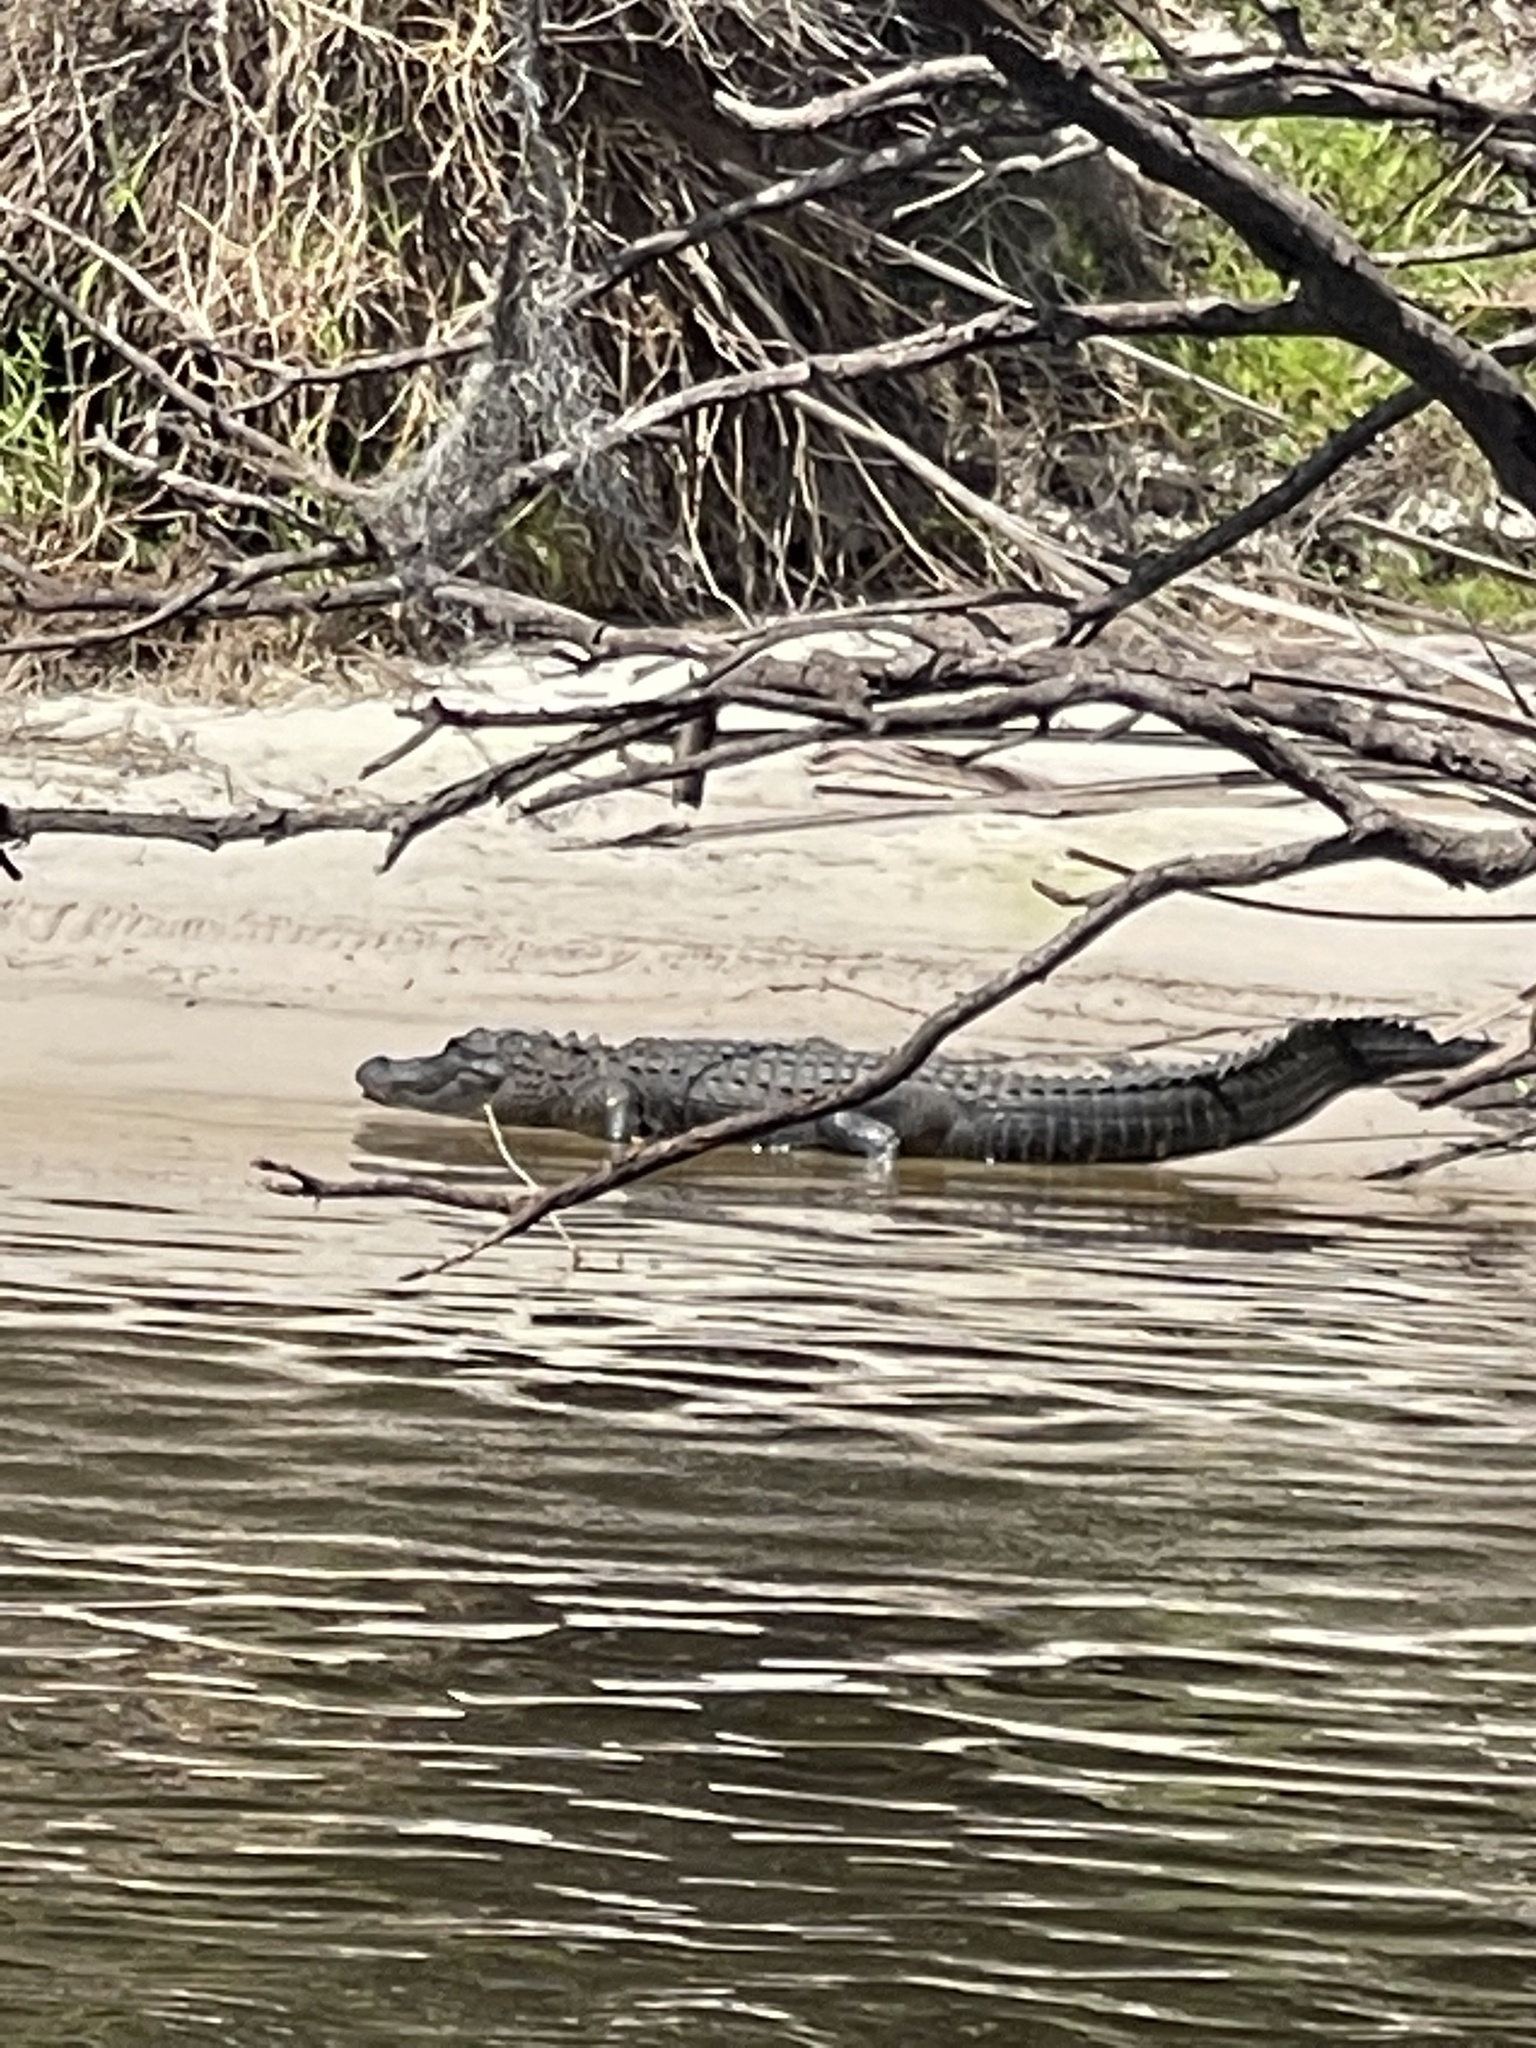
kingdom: Animalia
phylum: Chordata
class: Crocodylia
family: Alligatoridae
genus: Alligator
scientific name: Alligator mississippiensis
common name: American alligator
